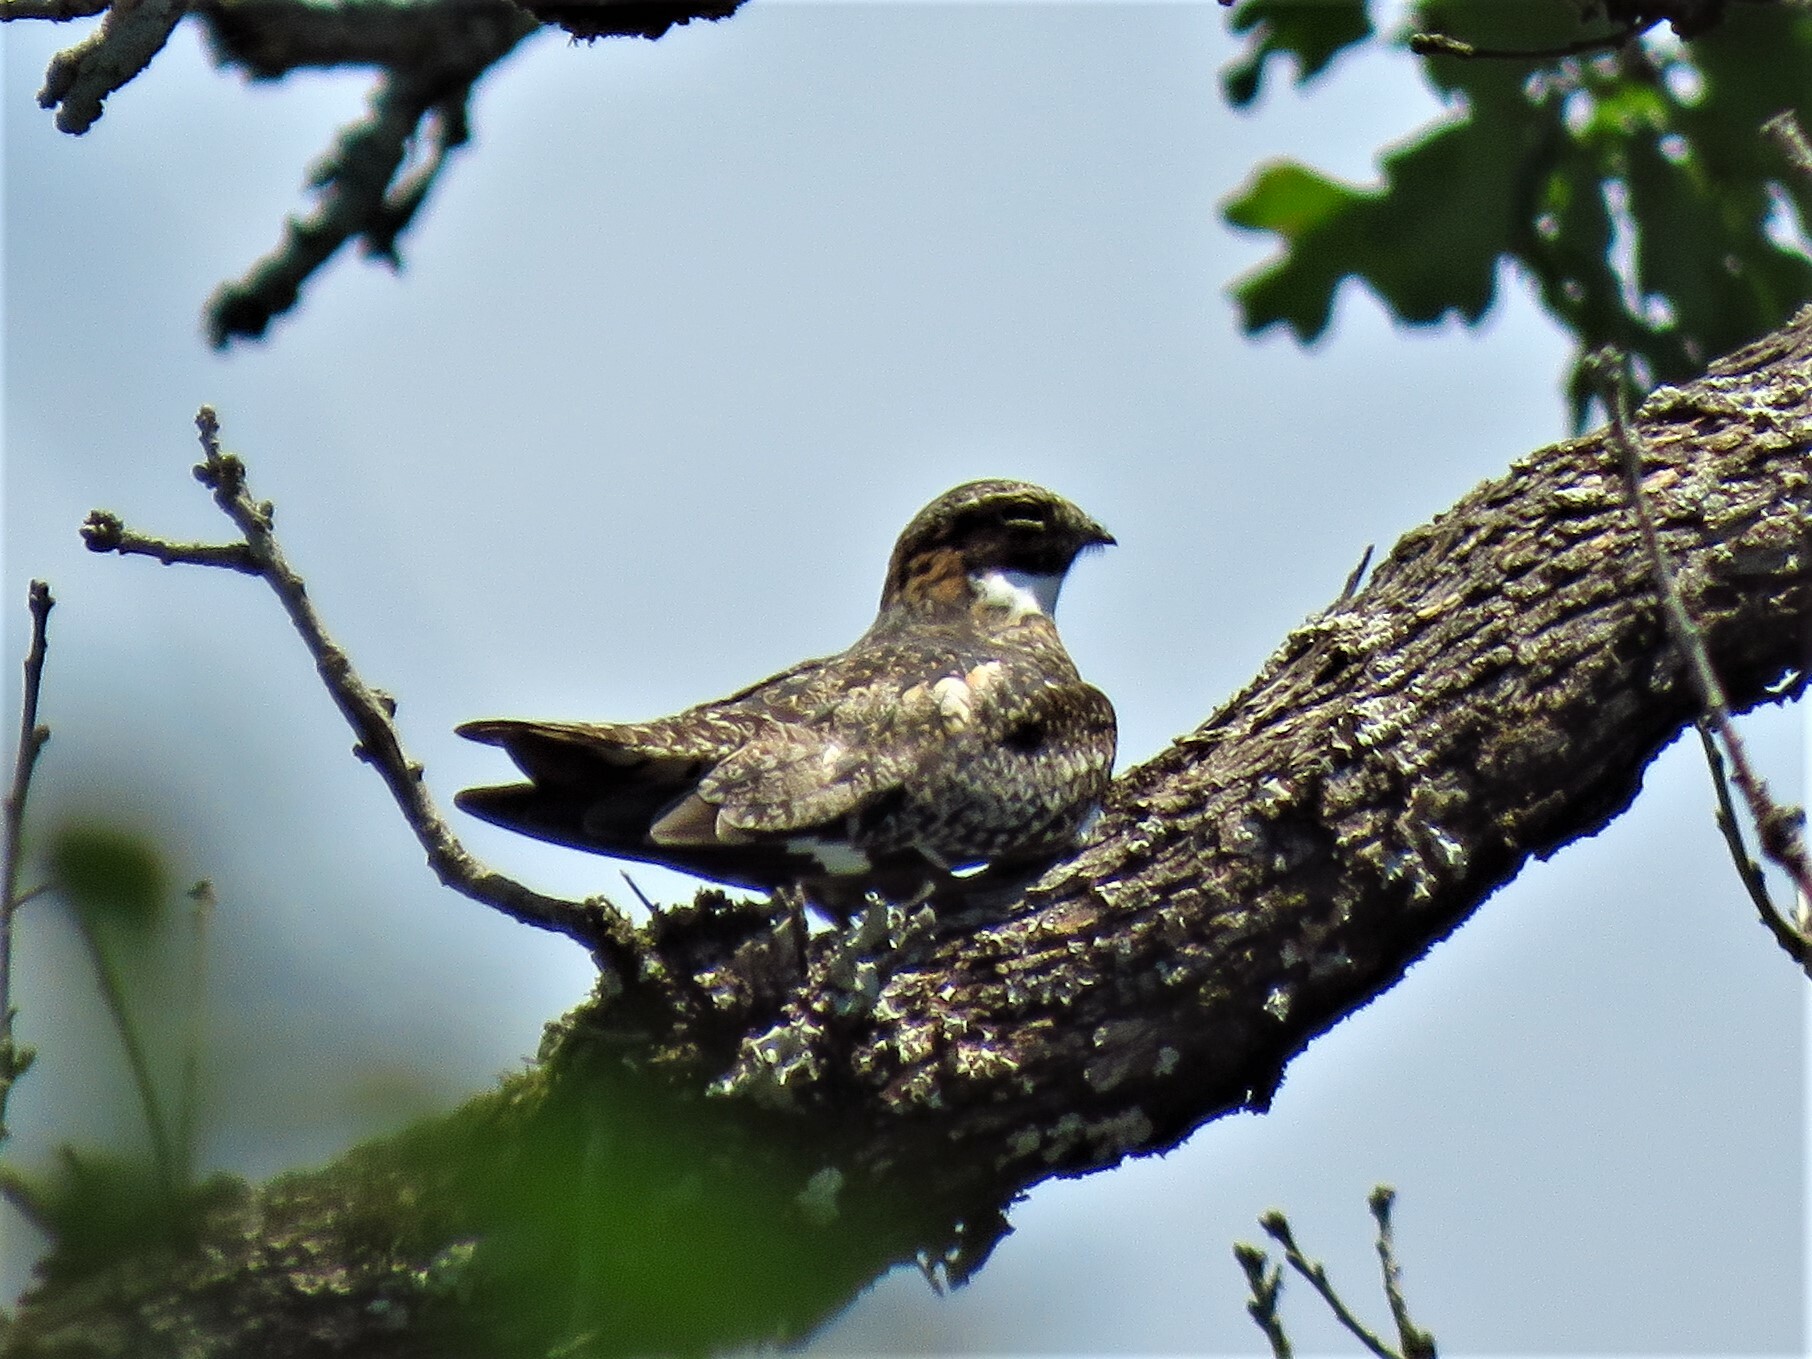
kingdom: Animalia
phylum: Chordata
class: Aves
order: Caprimulgiformes
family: Caprimulgidae
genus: Chordeiles
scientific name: Chordeiles minor
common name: Common nighthawk
